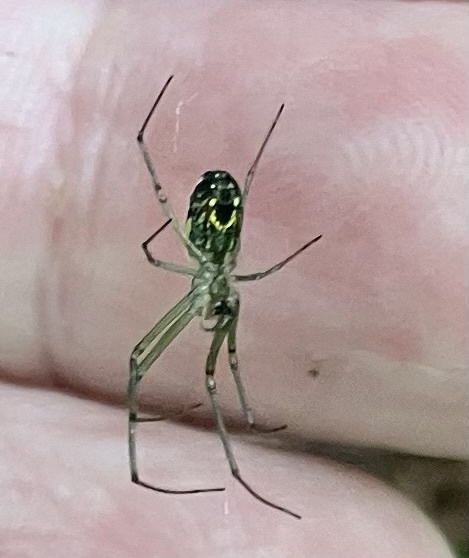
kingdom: Animalia
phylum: Arthropoda
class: Arachnida
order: Araneae
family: Tetragnathidae
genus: Leucauge
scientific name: Leucauge venusta
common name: Longjawed orb weavers
